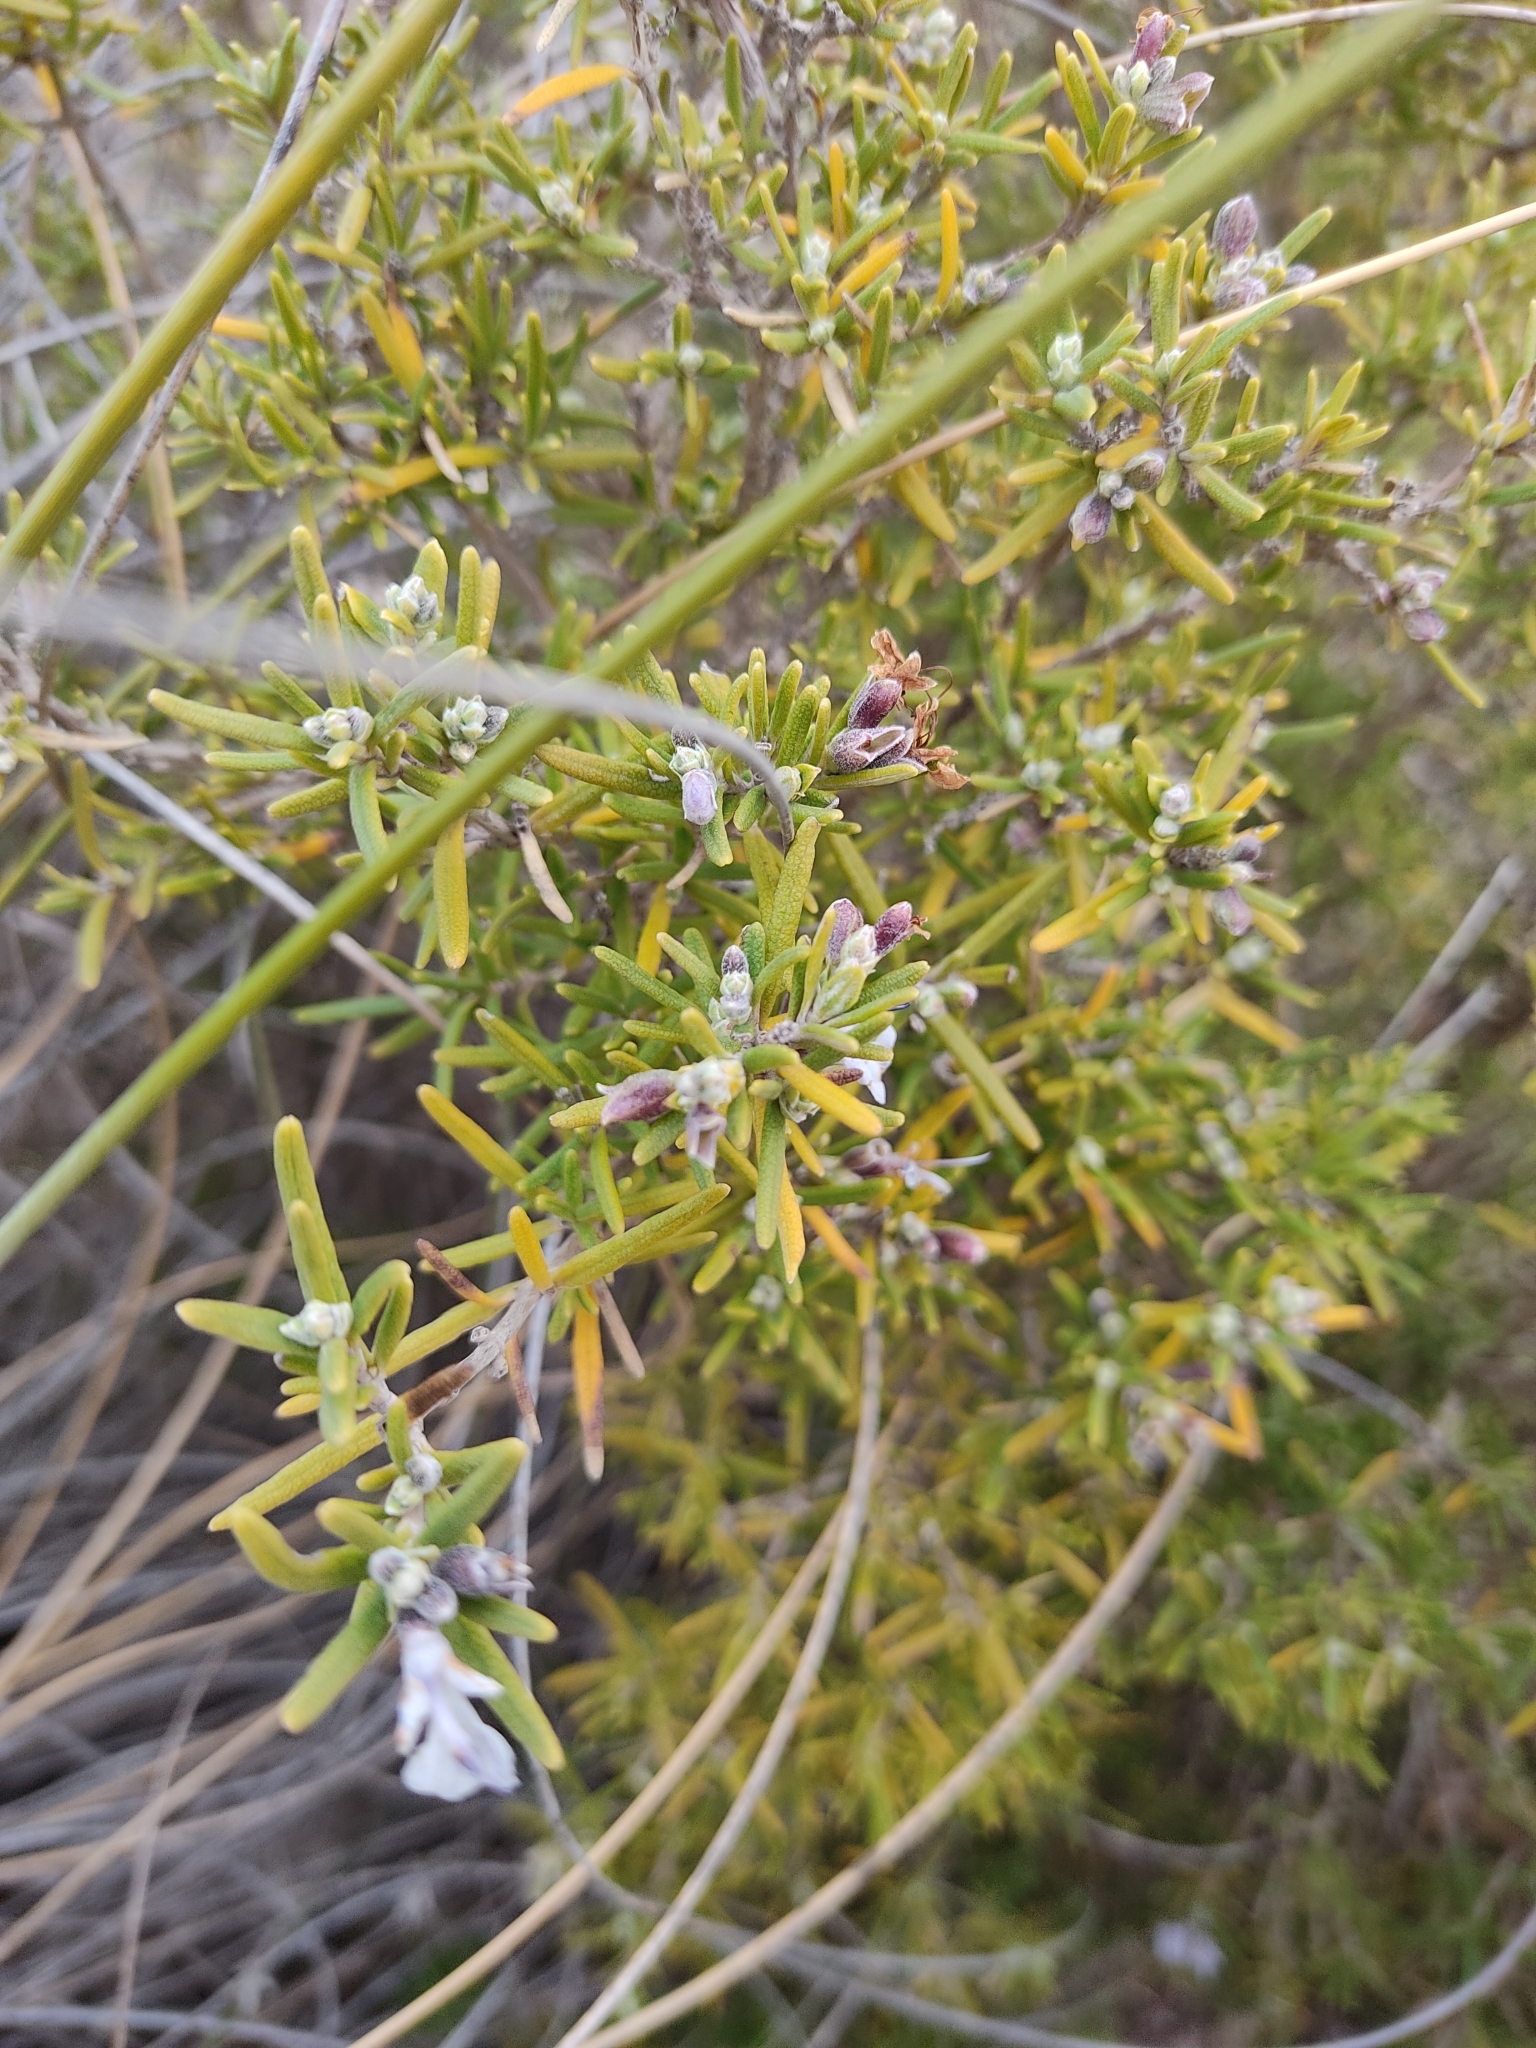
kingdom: Plantae
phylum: Tracheophyta
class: Magnoliopsida
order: Lamiales
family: Lamiaceae
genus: Salvia
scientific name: Salvia rosmarinus
